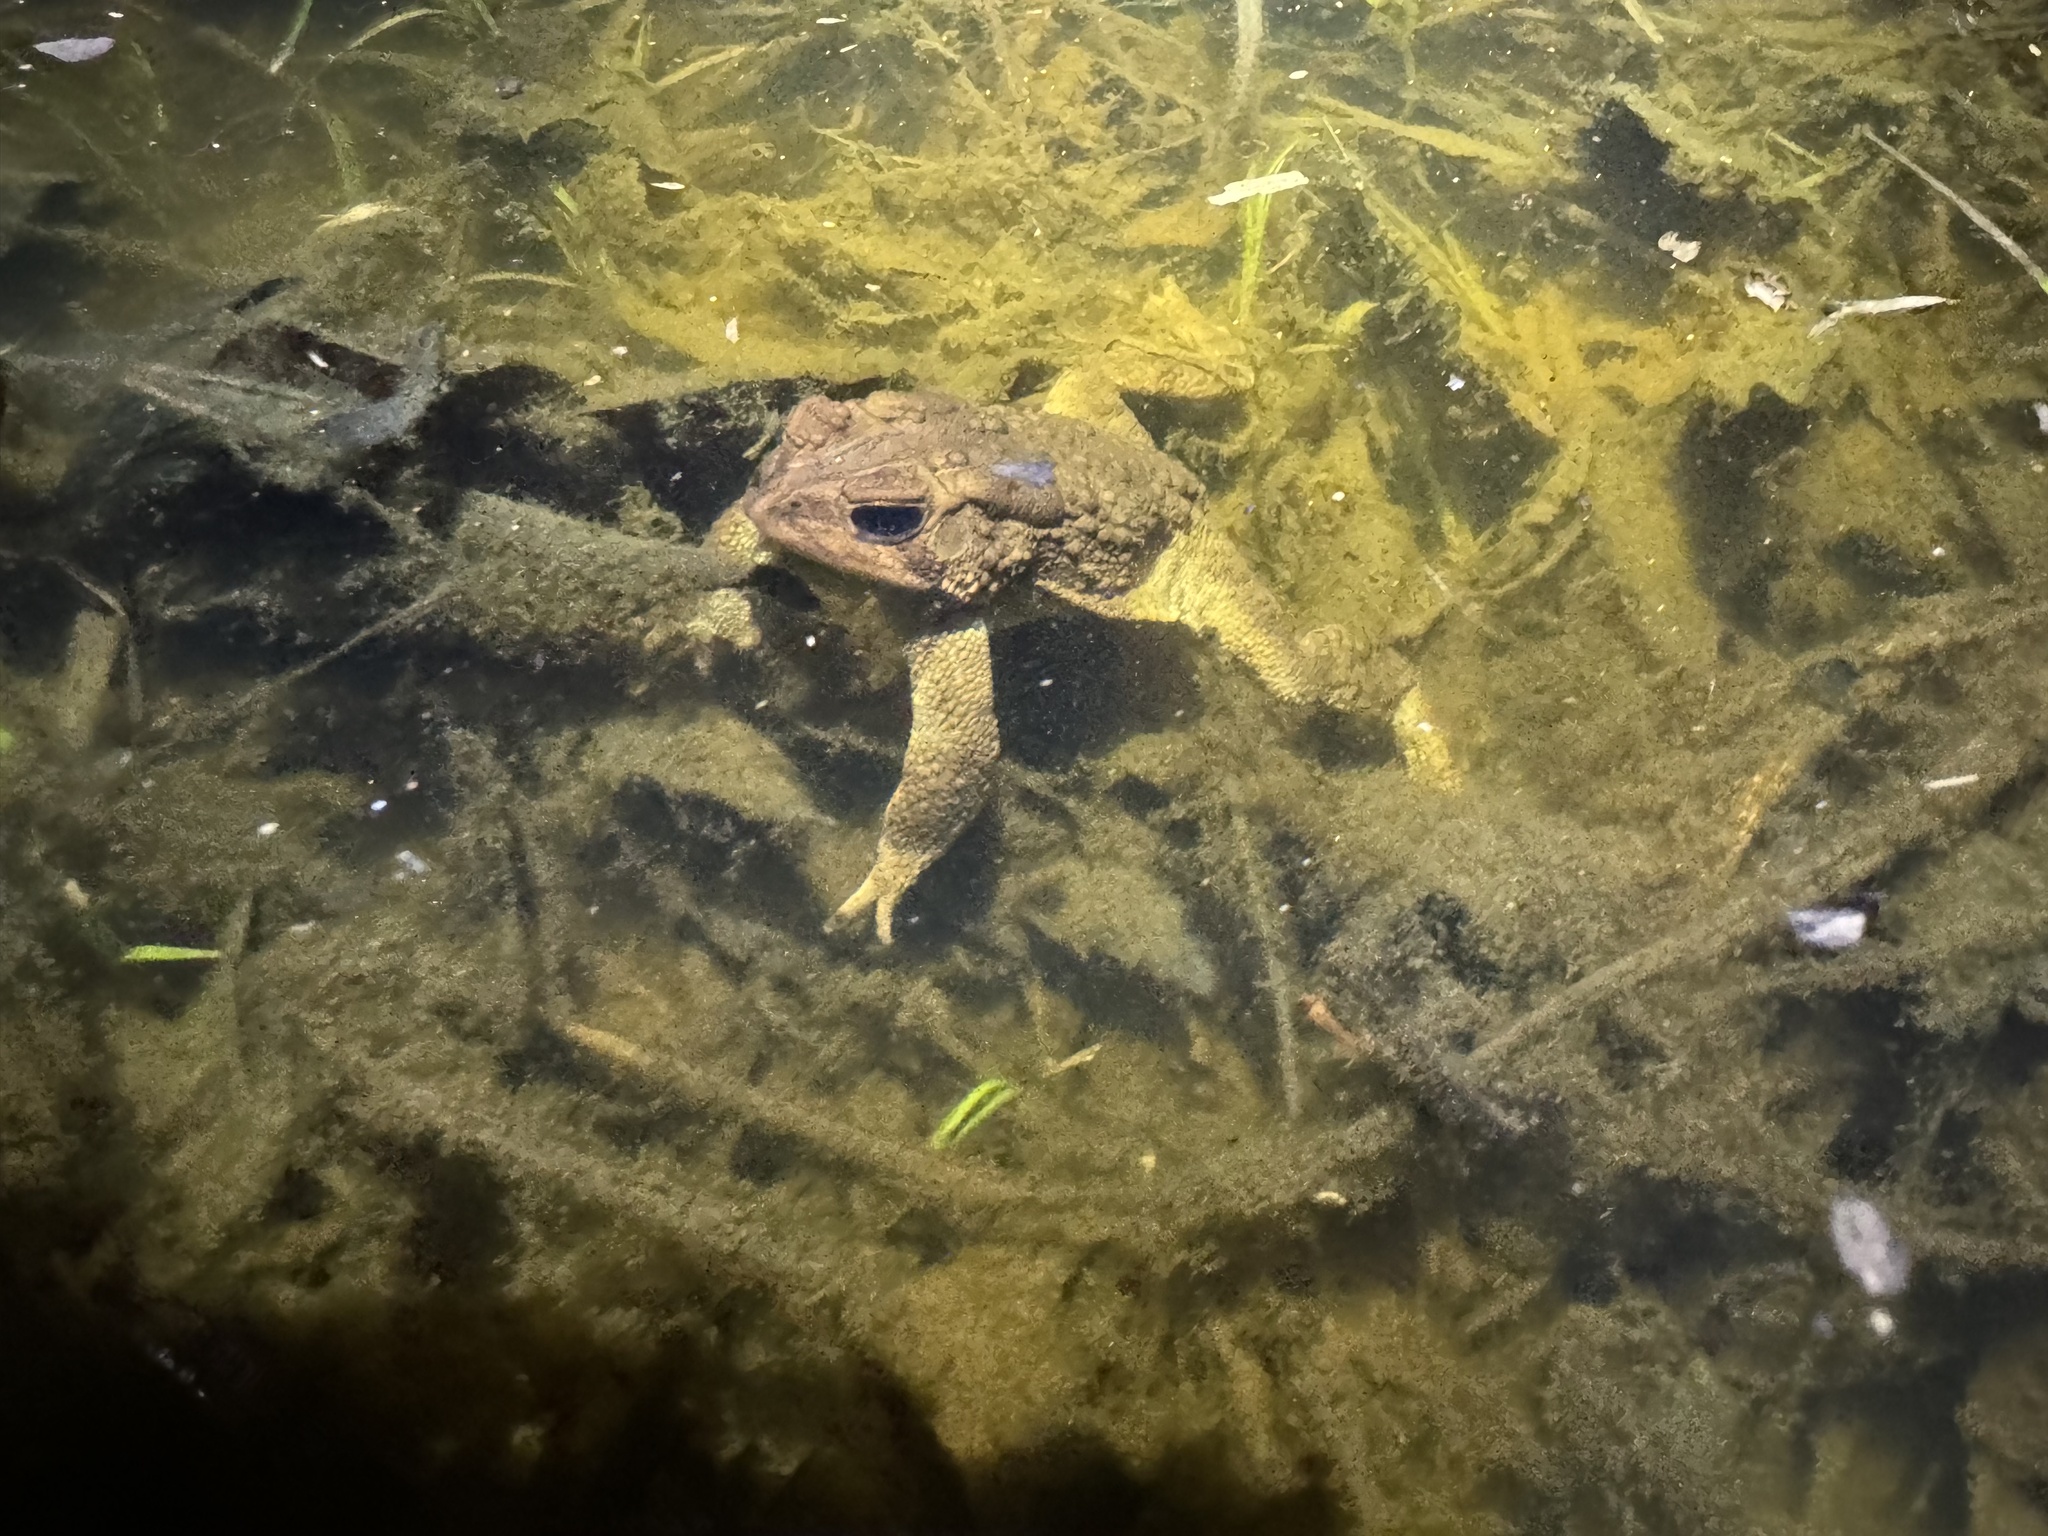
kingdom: Animalia
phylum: Chordata
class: Amphibia
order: Anura
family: Bufonidae
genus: Anaxyrus
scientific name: Anaxyrus americanus
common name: American toad
